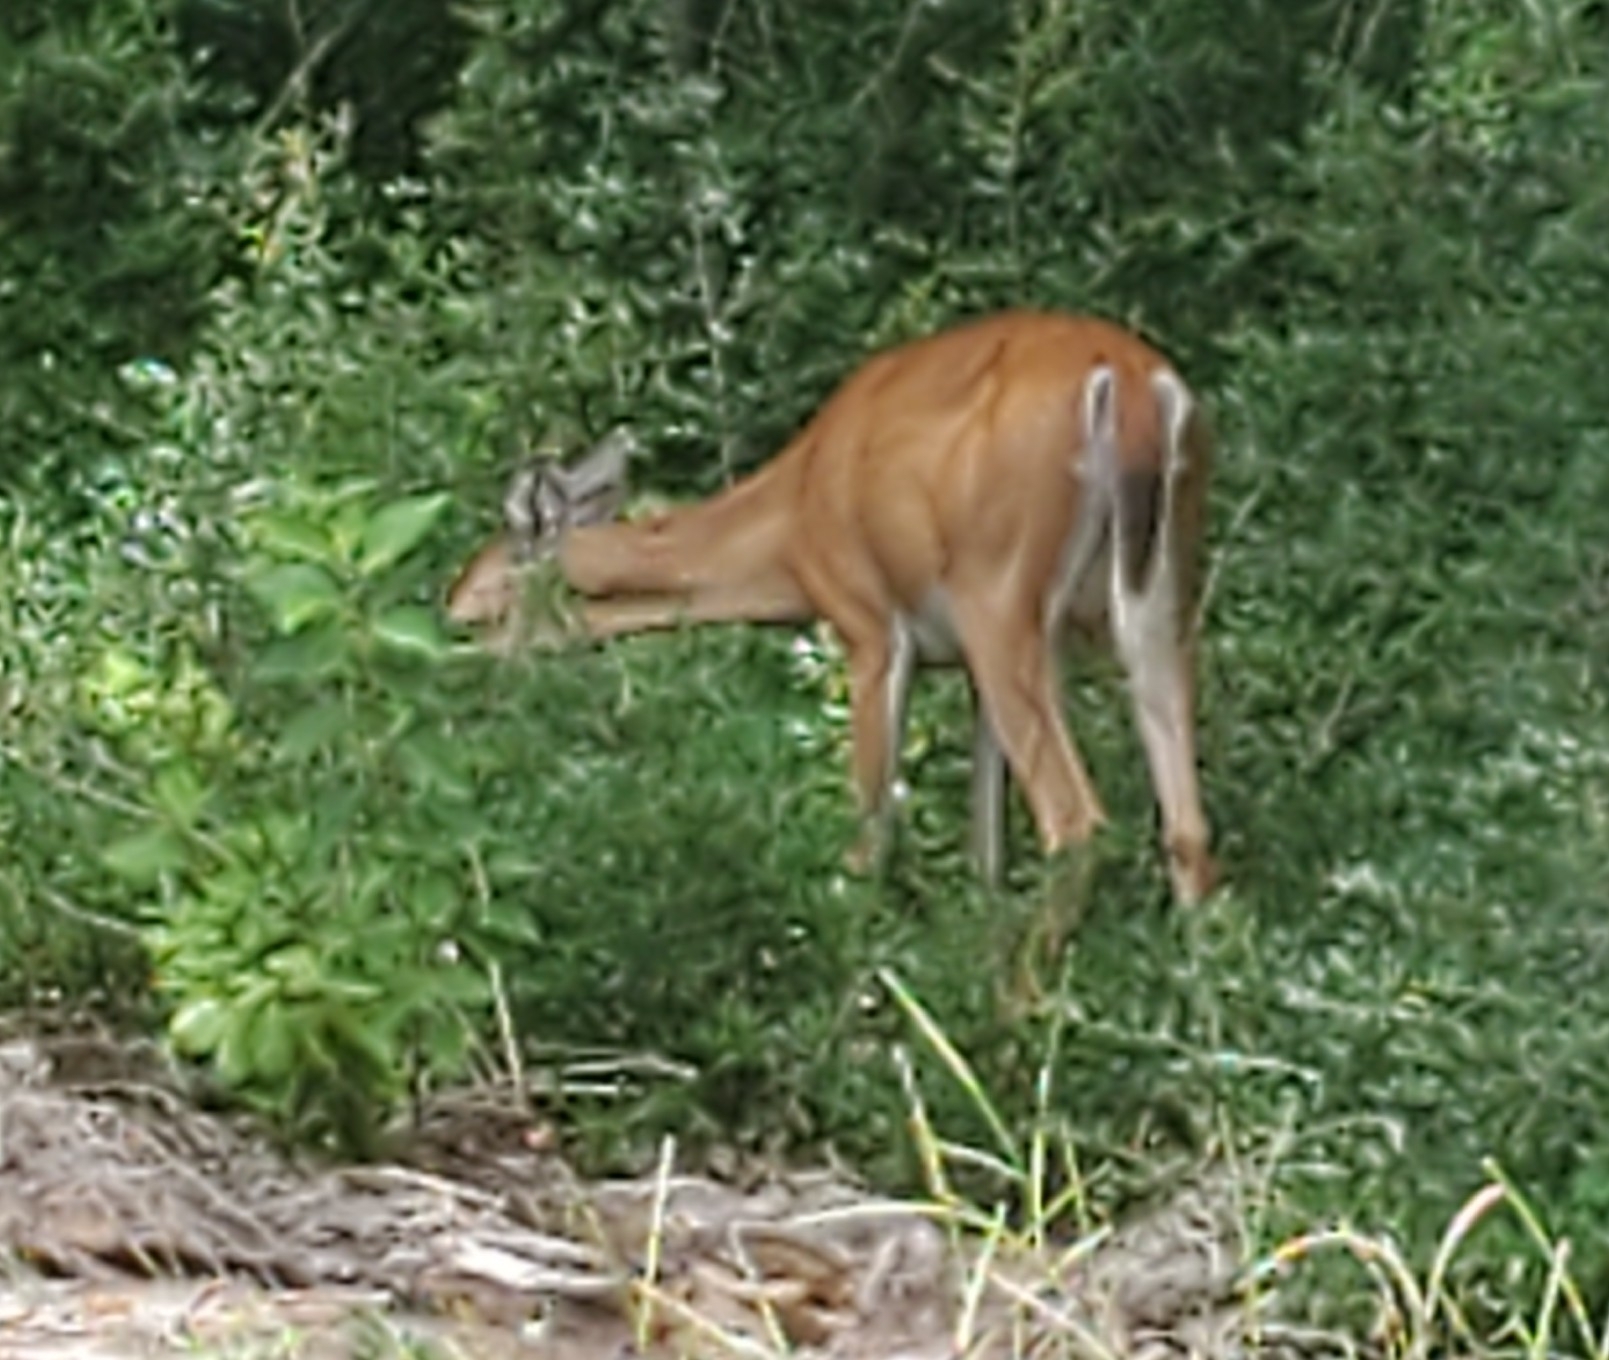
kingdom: Animalia
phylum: Chordata
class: Mammalia
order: Artiodactyla
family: Cervidae
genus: Odocoileus
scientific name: Odocoileus virginianus
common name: White-tailed deer
